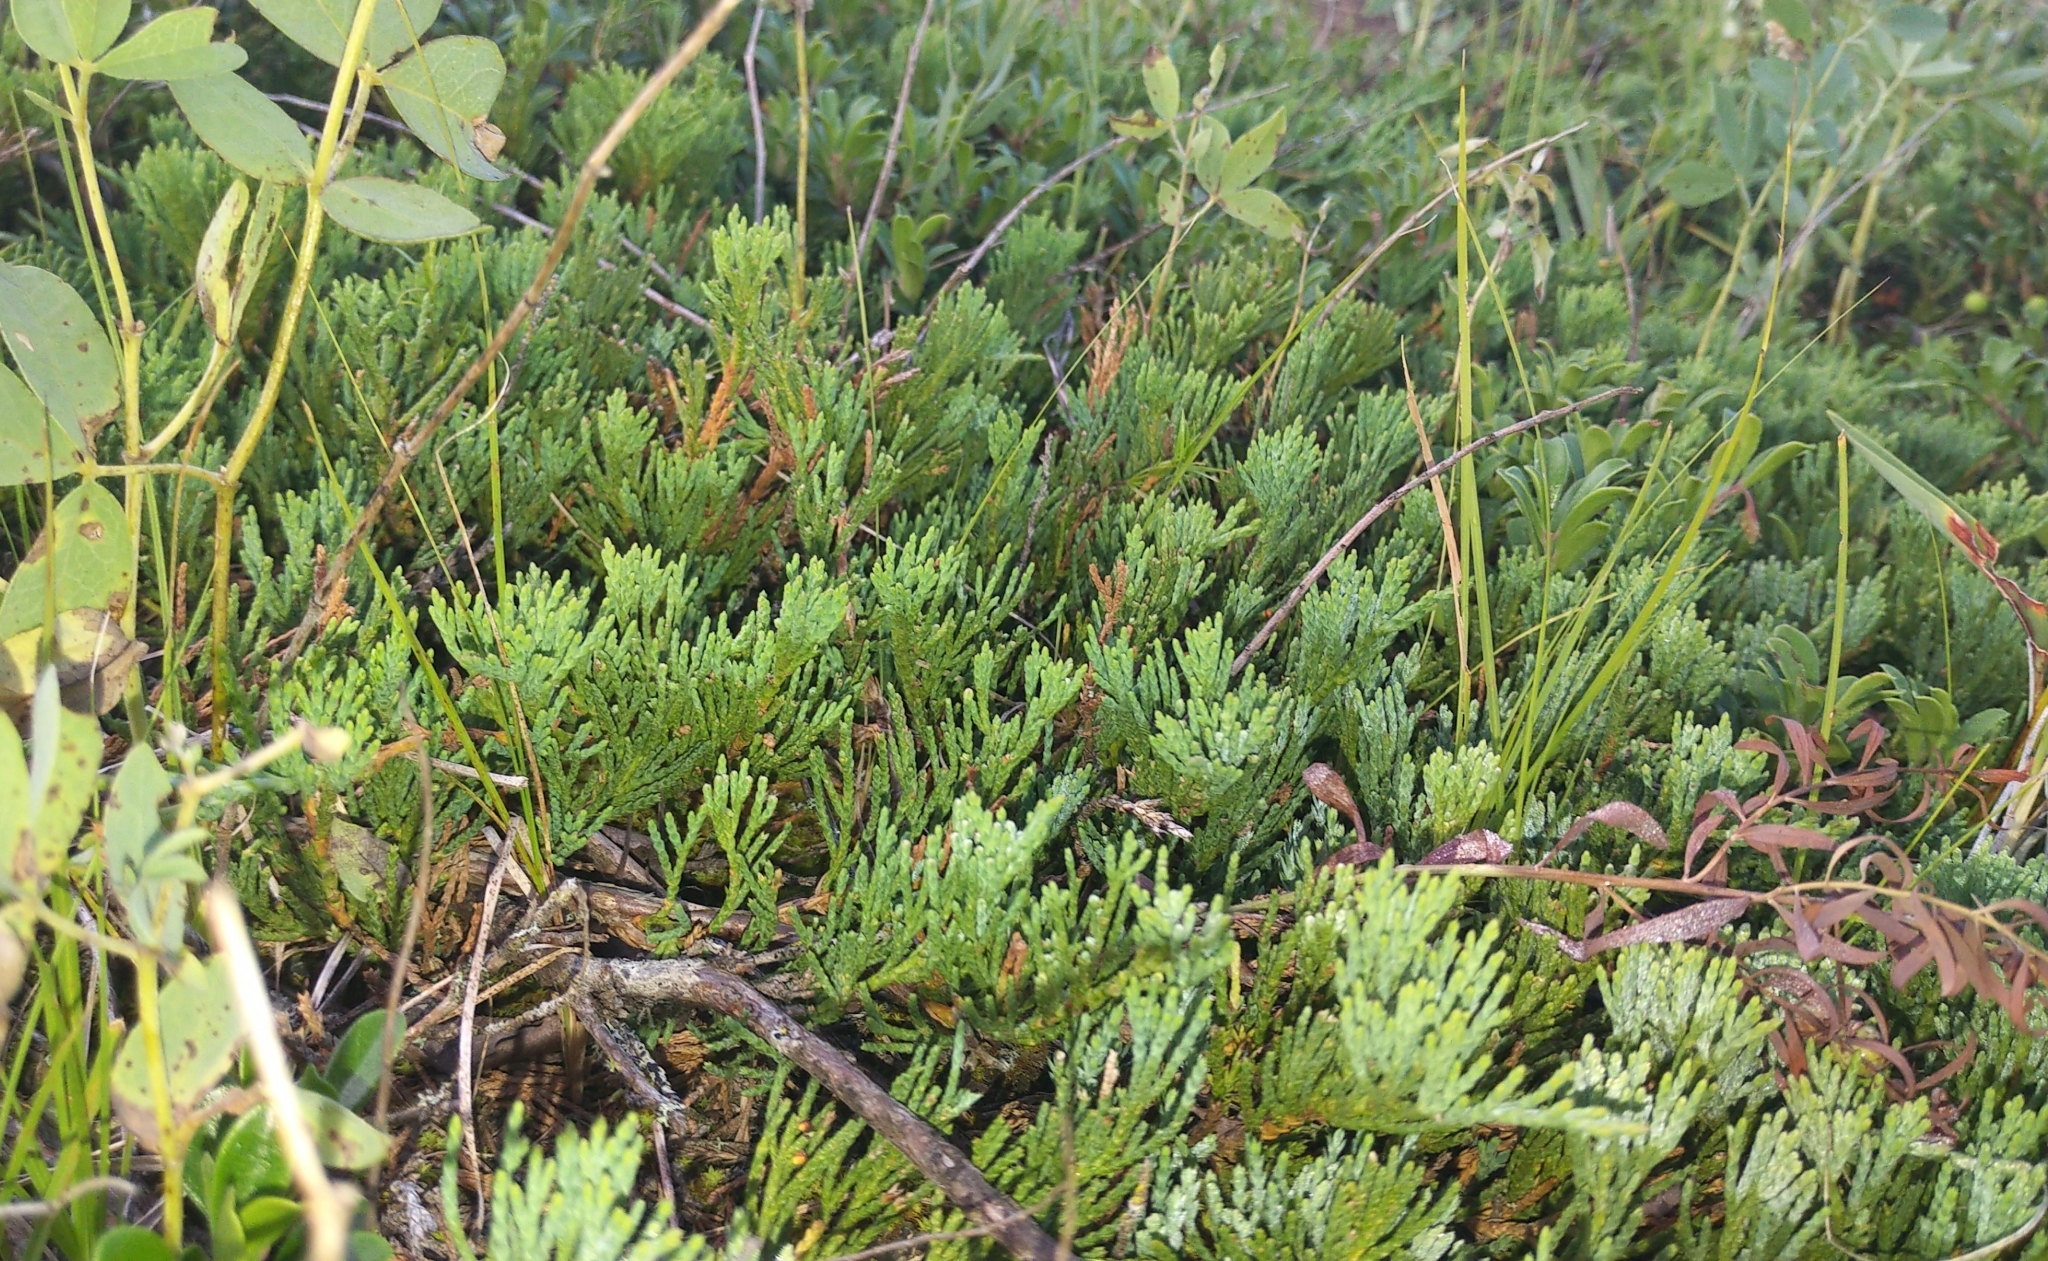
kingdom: Plantae
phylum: Tracheophyta
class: Pinopsida
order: Pinales
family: Cupressaceae
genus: Juniperus
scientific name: Juniperus horizontalis
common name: Creeping juniper
